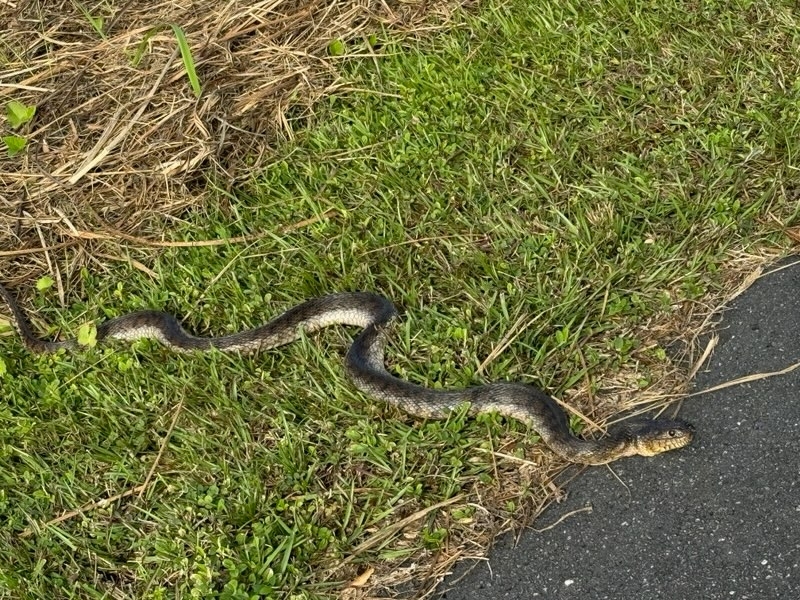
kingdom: Animalia
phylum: Chordata
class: Squamata
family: Colubridae
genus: Nerodia
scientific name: Nerodia floridana
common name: Florida green watersnake
